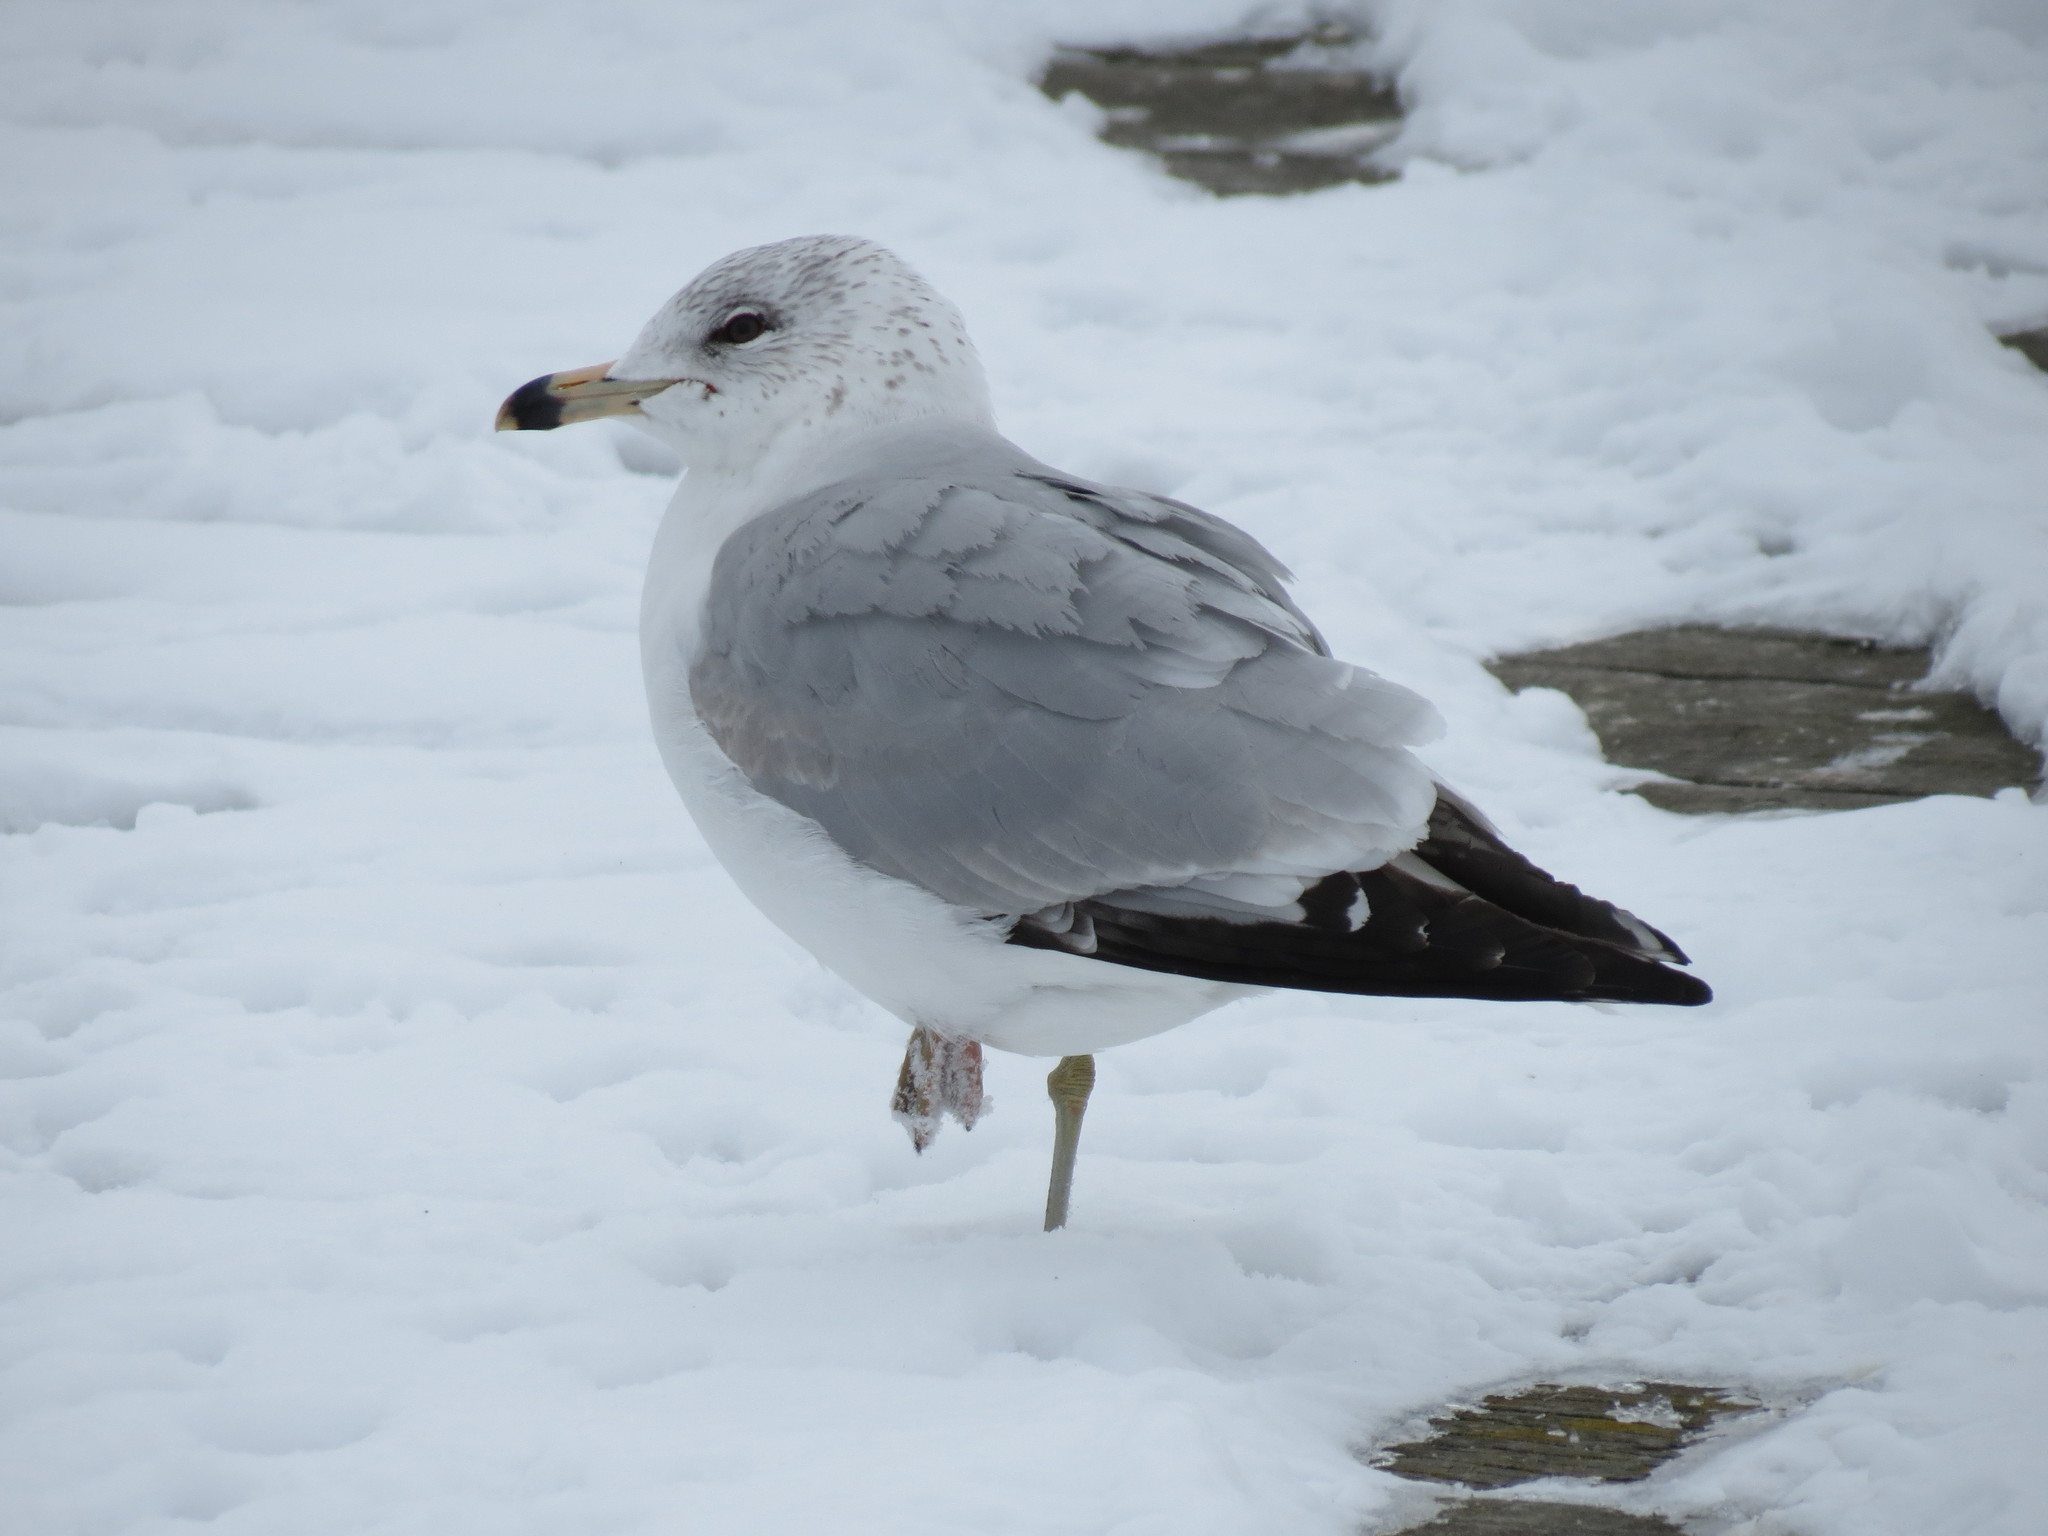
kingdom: Animalia
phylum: Chordata
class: Aves
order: Charadriiformes
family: Laridae
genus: Larus
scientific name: Larus delawarensis
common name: Ring-billed gull
